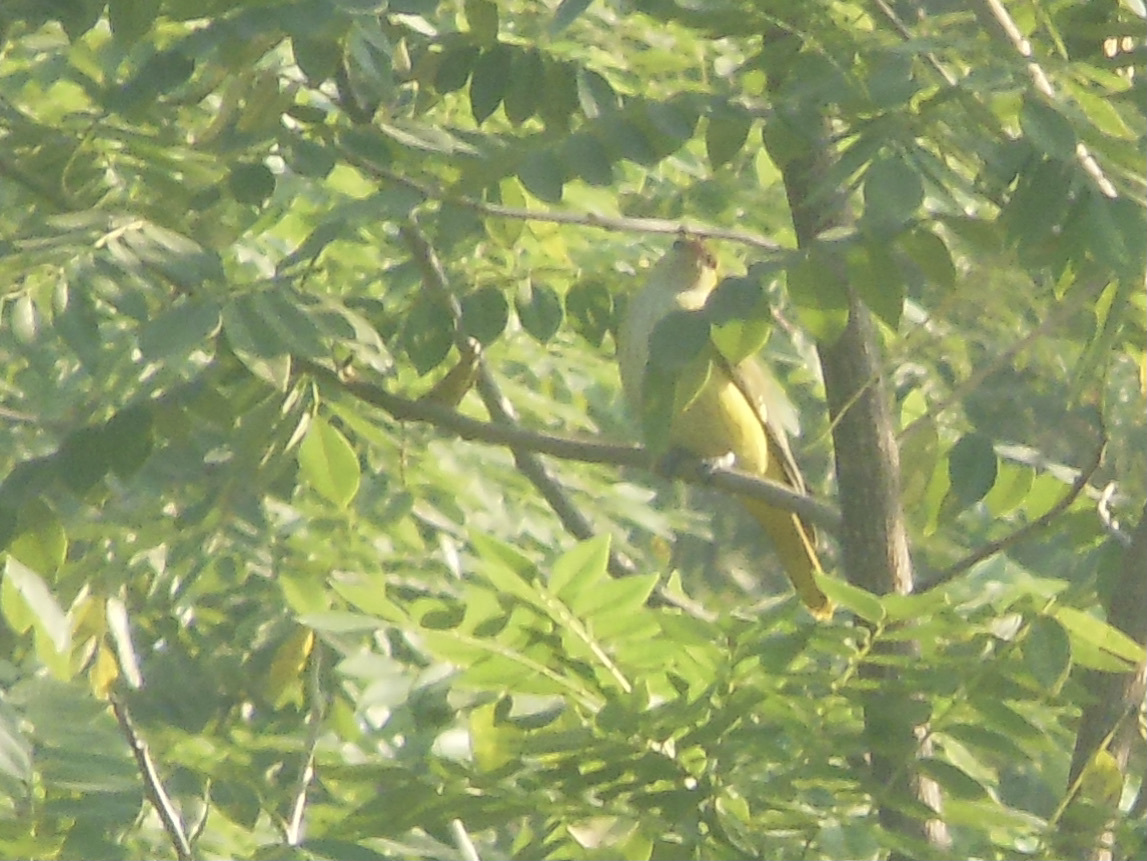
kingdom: Animalia
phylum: Chordata
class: Aves
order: Passeriformes
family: Oriolidae
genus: Oriolus
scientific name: Oriolus kundoo
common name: Indian golden oriole
